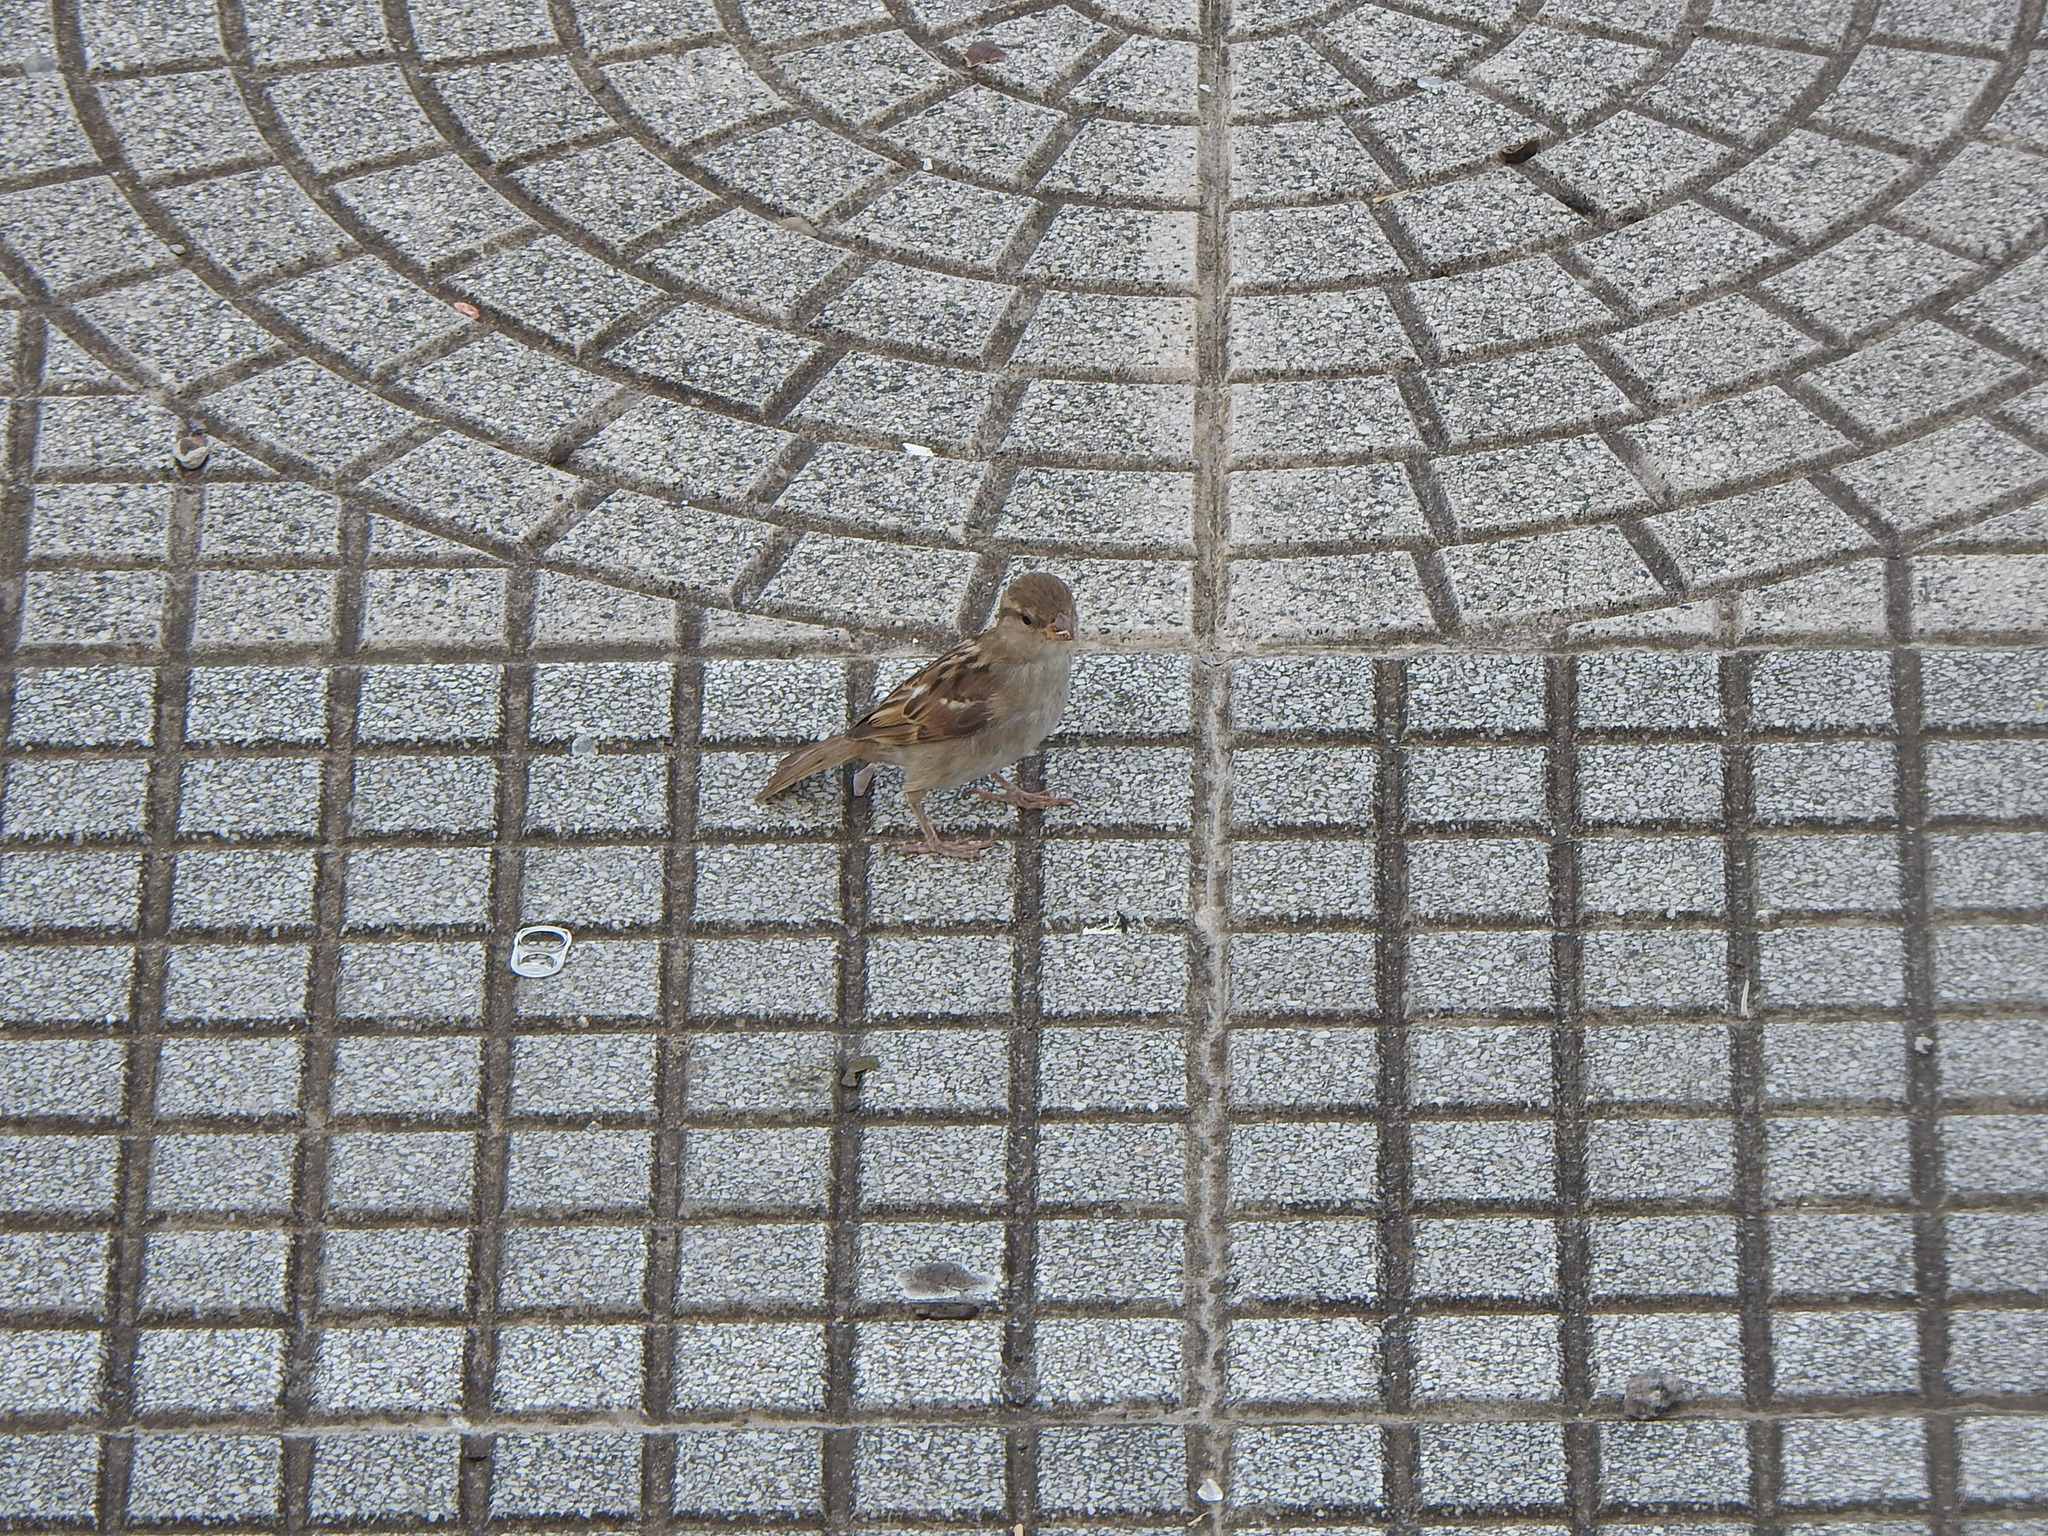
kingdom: Animalia
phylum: Chordata
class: Aves
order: Passeriformes
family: Passeridae
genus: Passer
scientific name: Passer domesticus
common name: House sparrow
